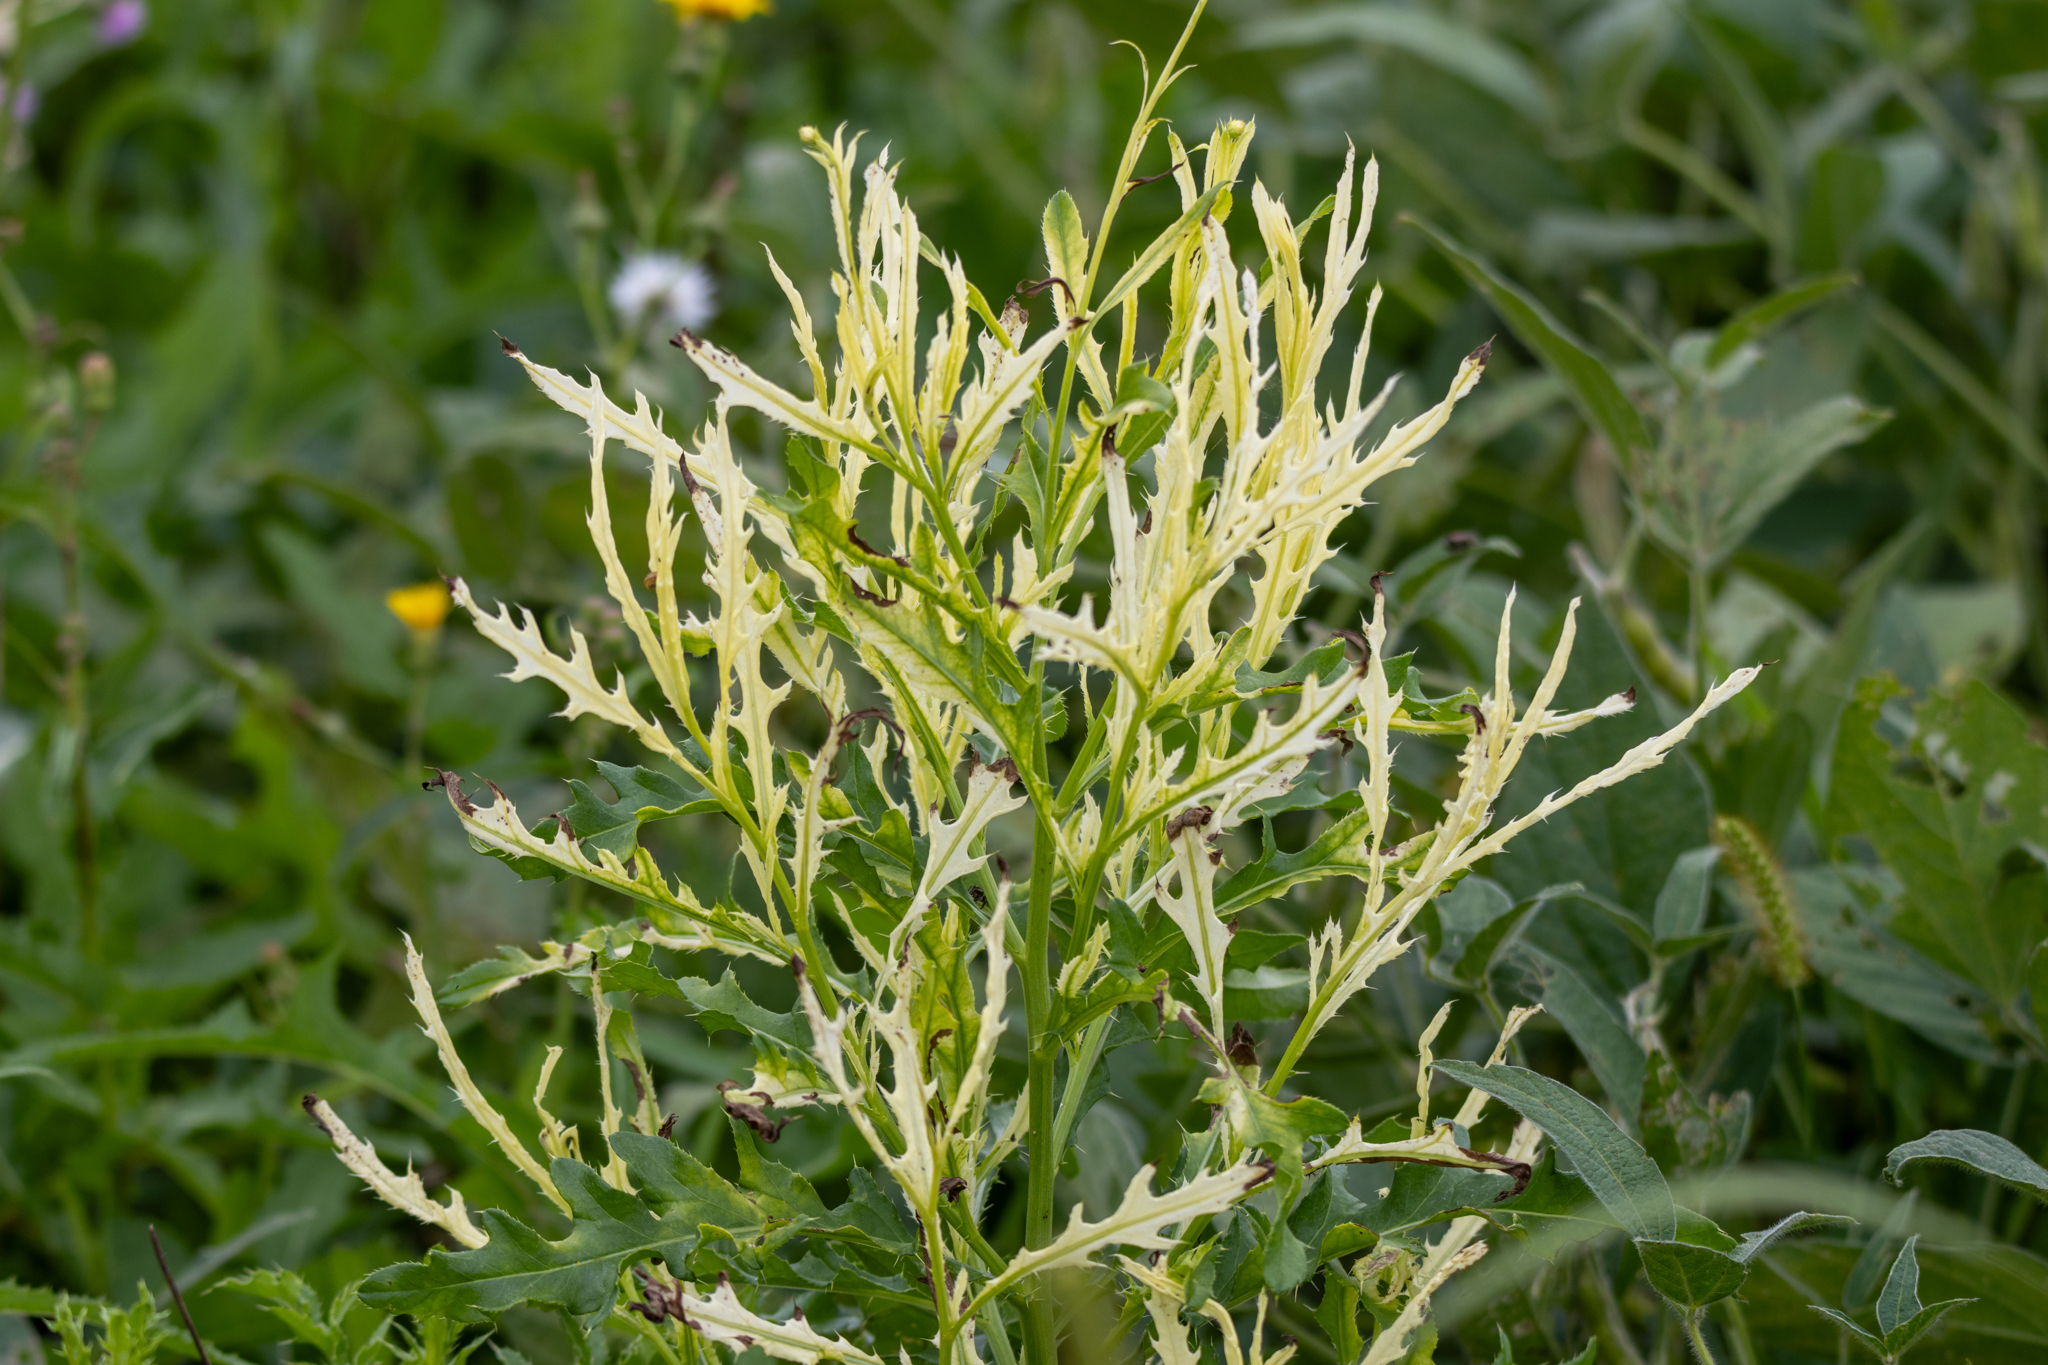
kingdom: Bacteria
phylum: Proteobacteria
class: Gammaproteobacteria
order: Pseudomonadales
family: Pseudomonadaceae
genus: Pseudomonas
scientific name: Pseudomonas syringae
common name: Bacterial speck
